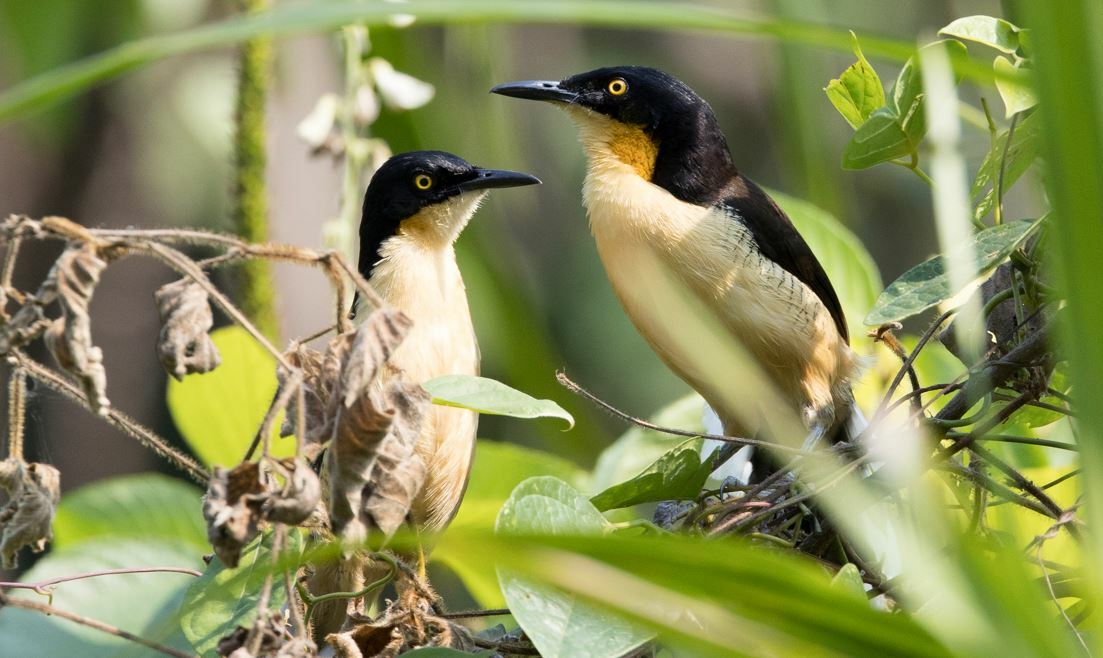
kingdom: Animalia
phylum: Chordata
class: Aves
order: Passeriformes
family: Donacobiidae
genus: Donacobius
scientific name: Donacobius atricapilla
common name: Black-capped donacobius
